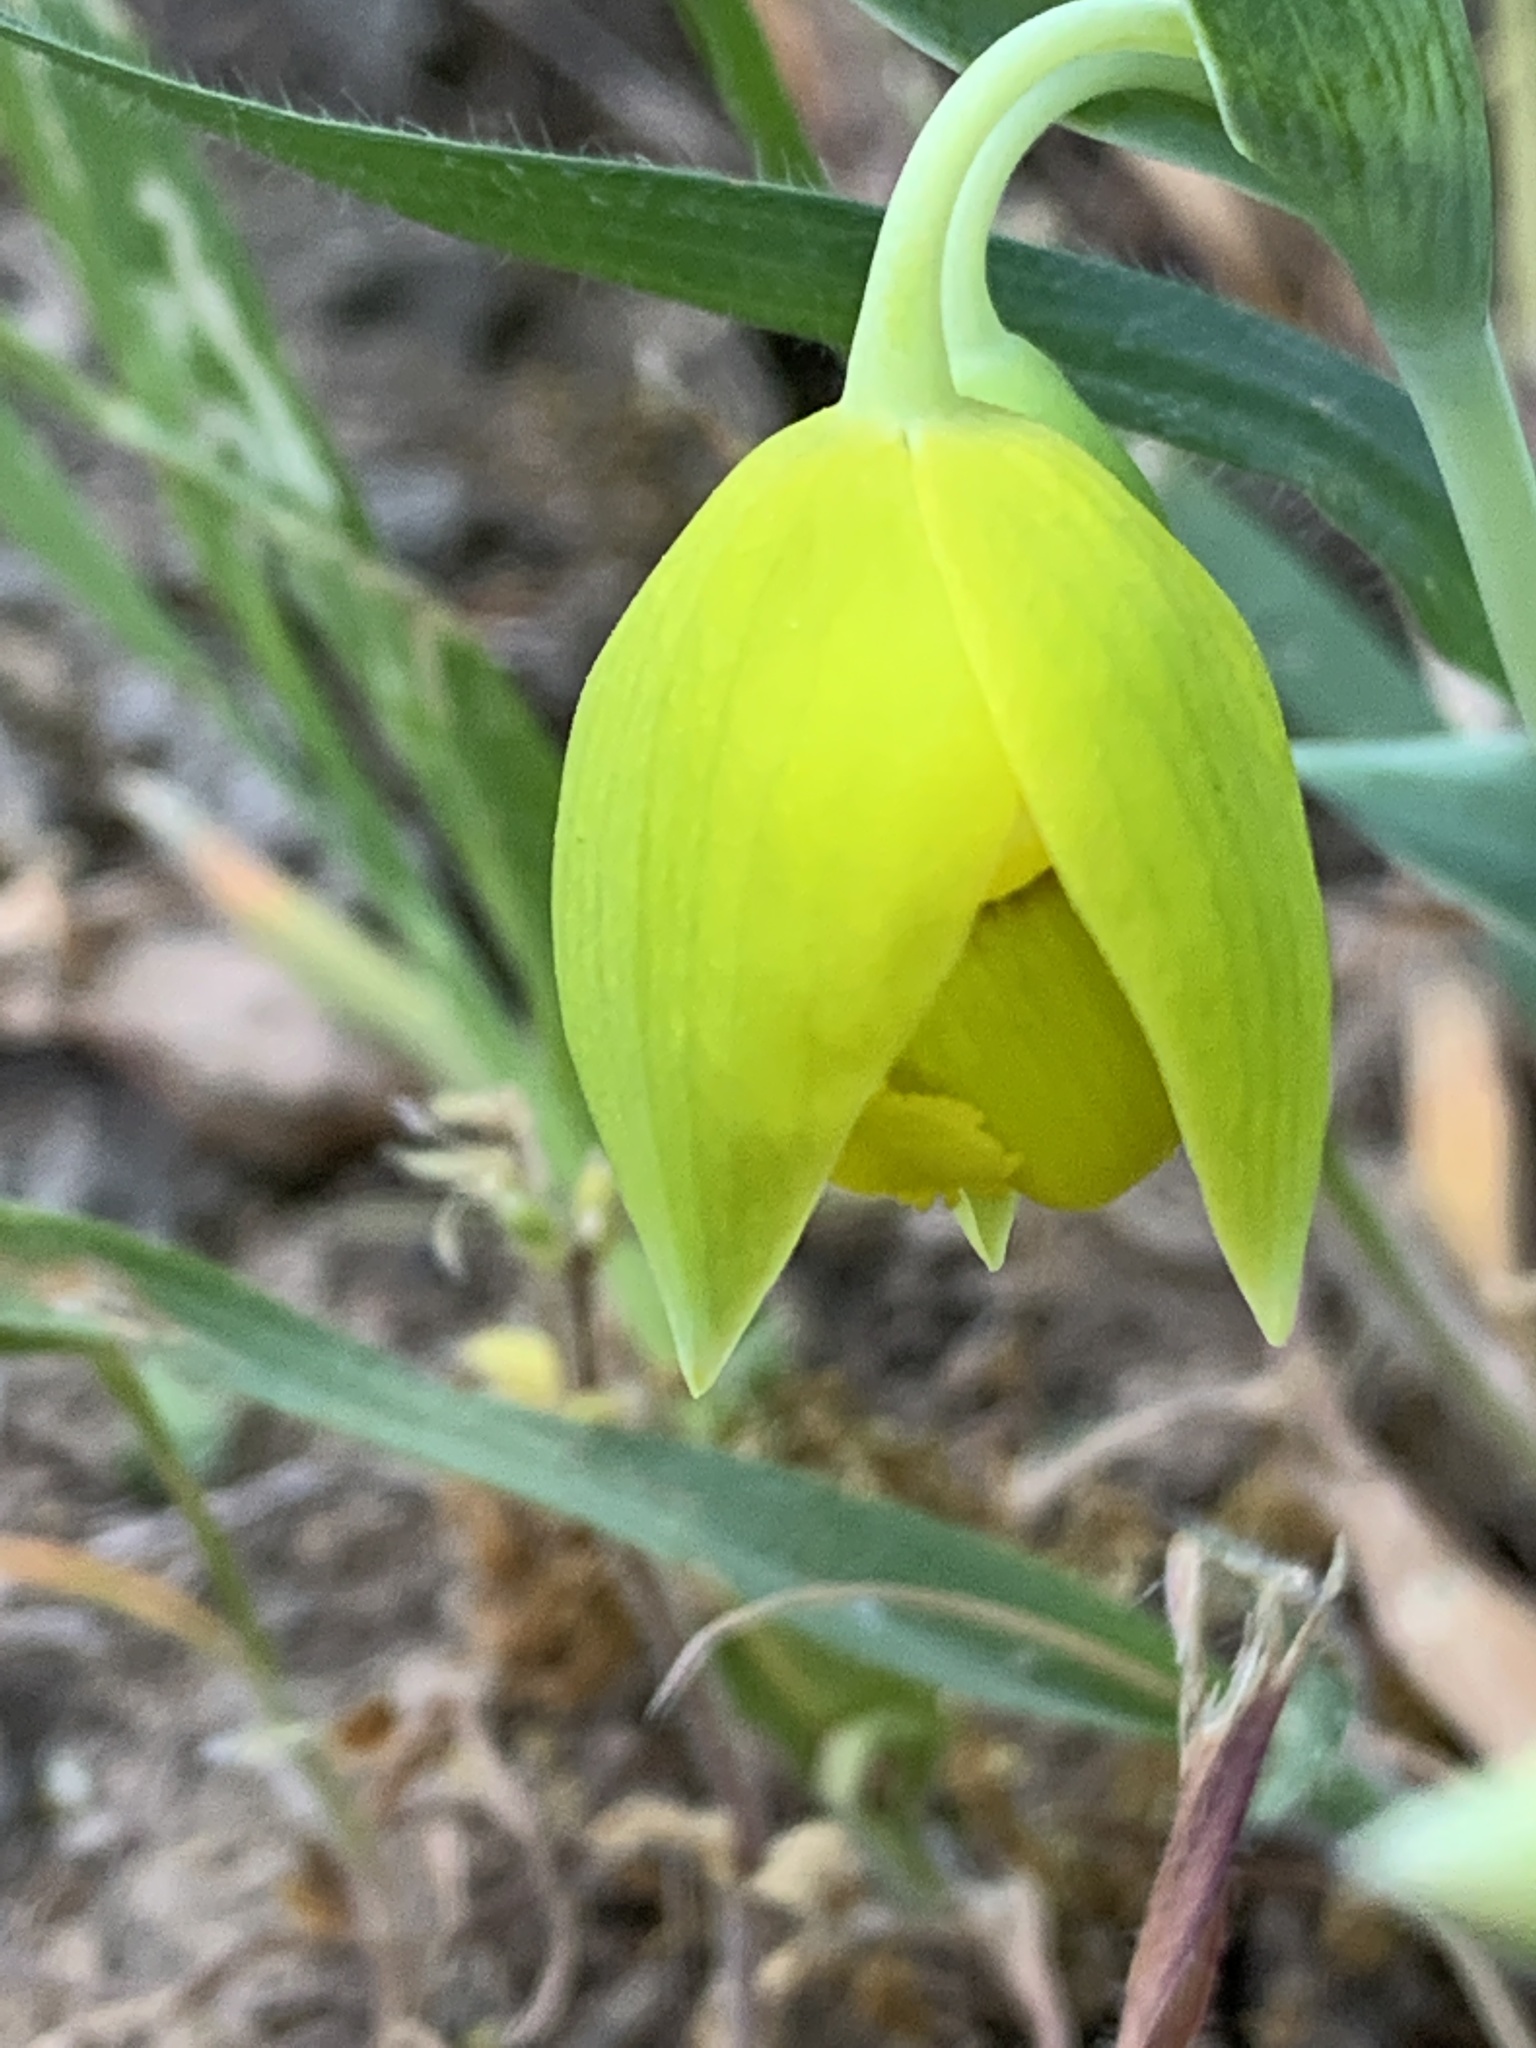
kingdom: Plantae
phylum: Tracheophyta
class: Liliopsida
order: Liliales
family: Liliaceae
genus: Calochortus
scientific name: Calochortus amabilis
